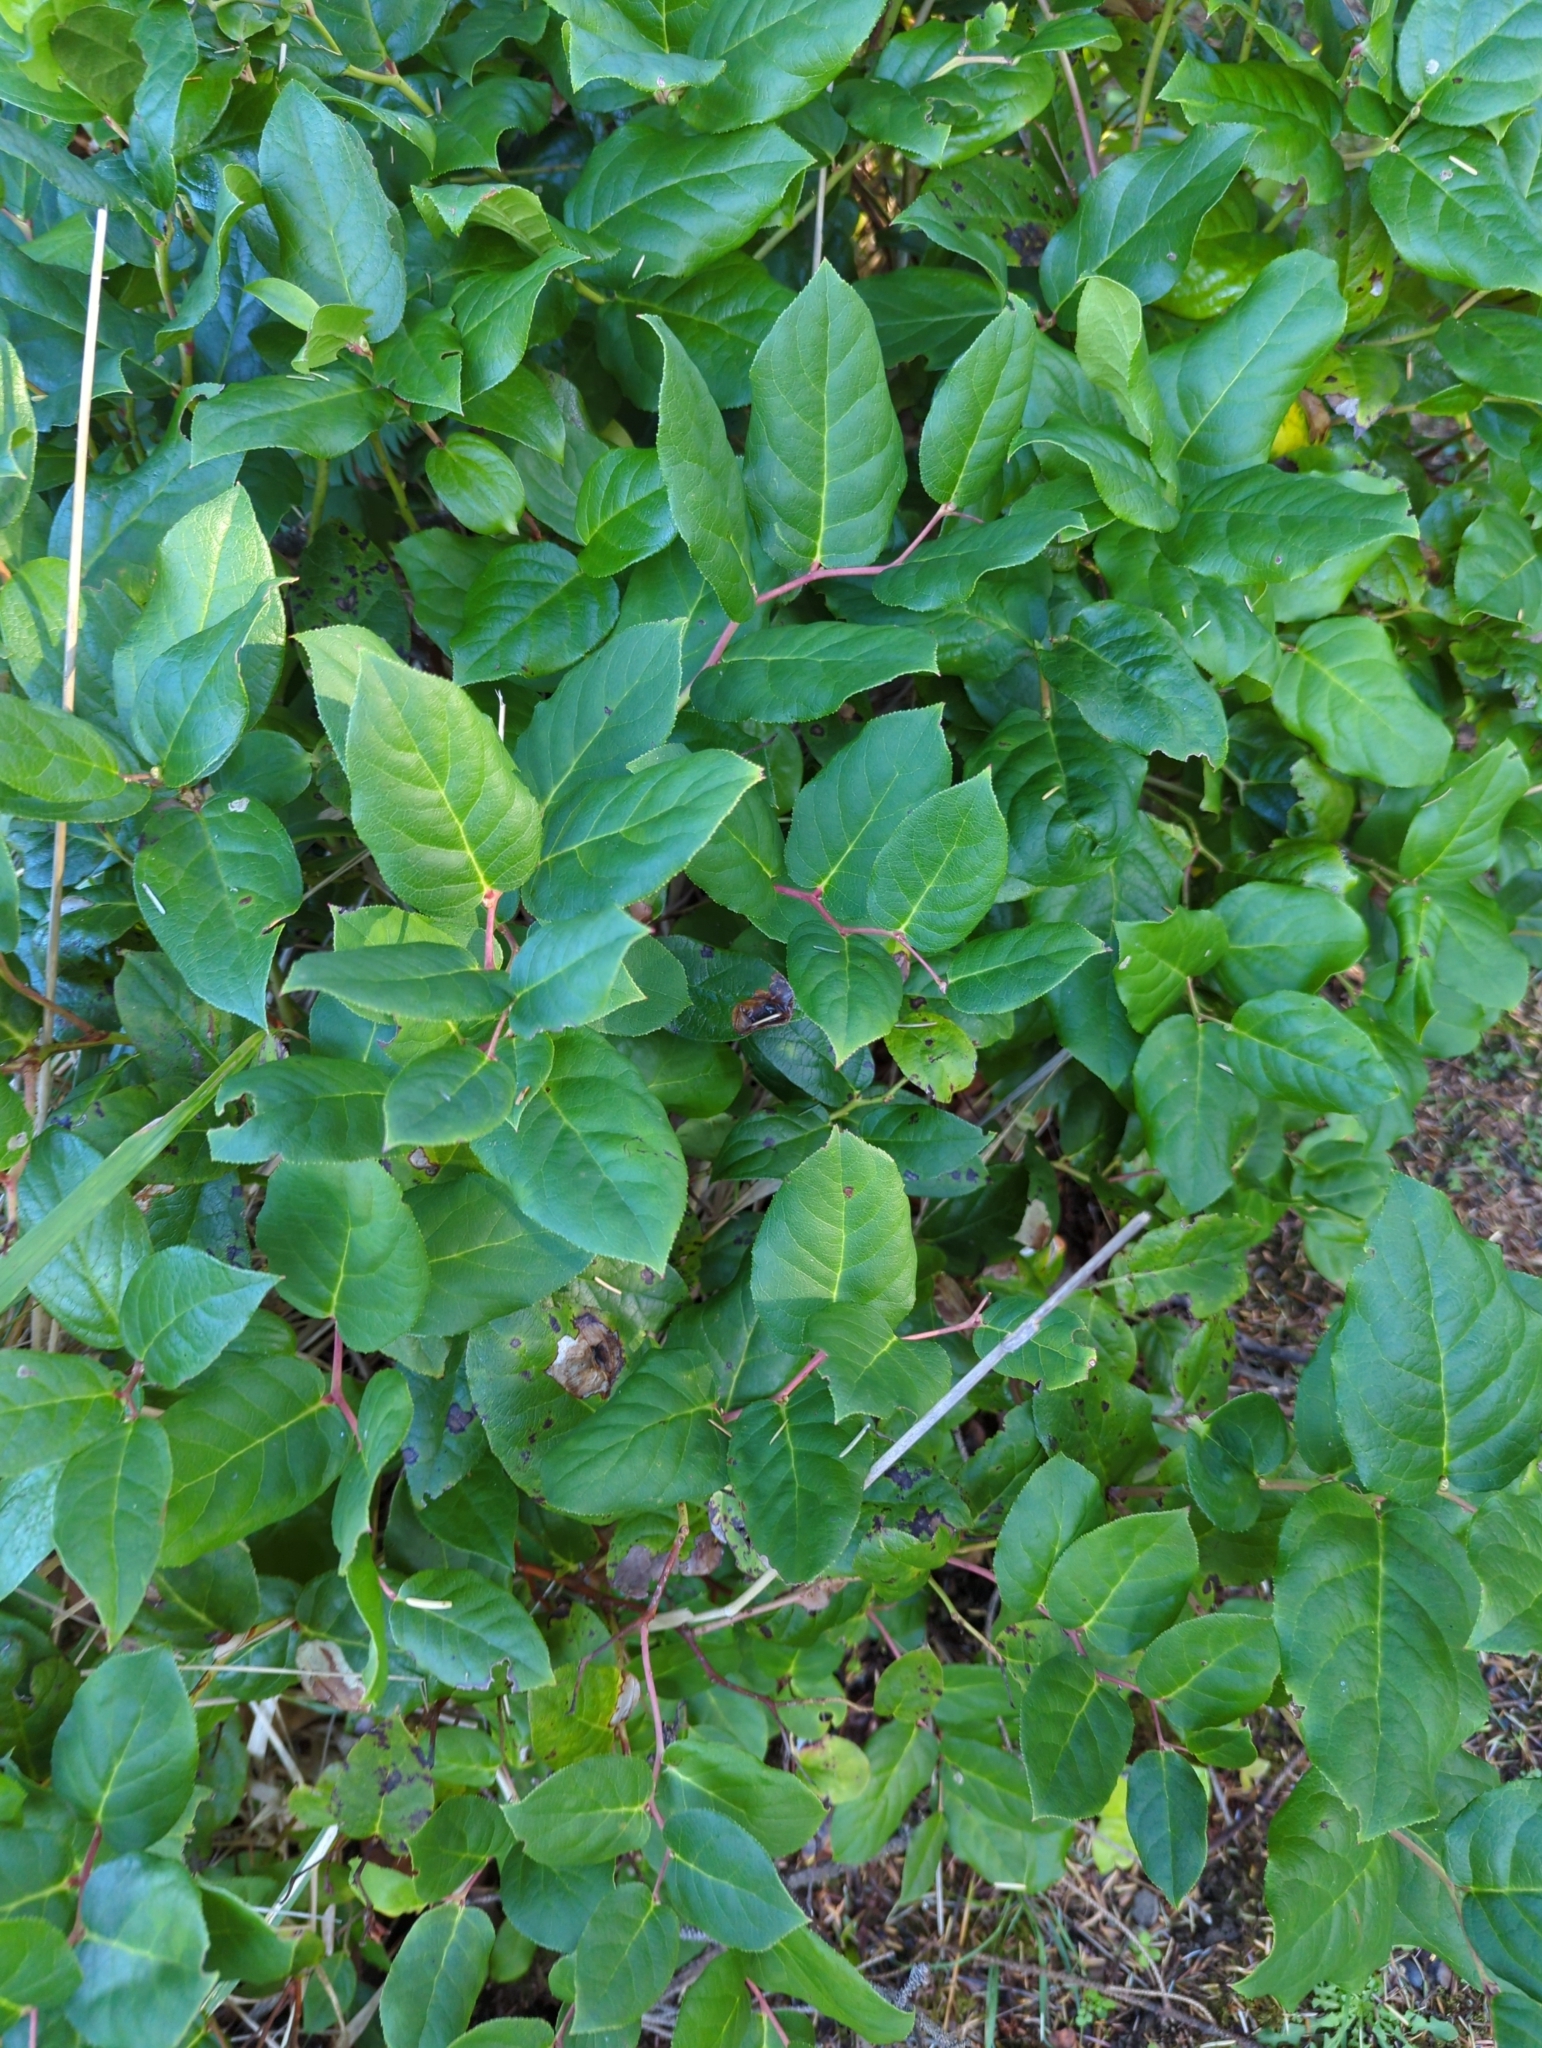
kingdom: Plantae
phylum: Tracheophyta
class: Magnoliopsida
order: Ericales
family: Ericaceae
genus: Gaultheria
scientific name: Gaultheria shallon
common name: Shallon
